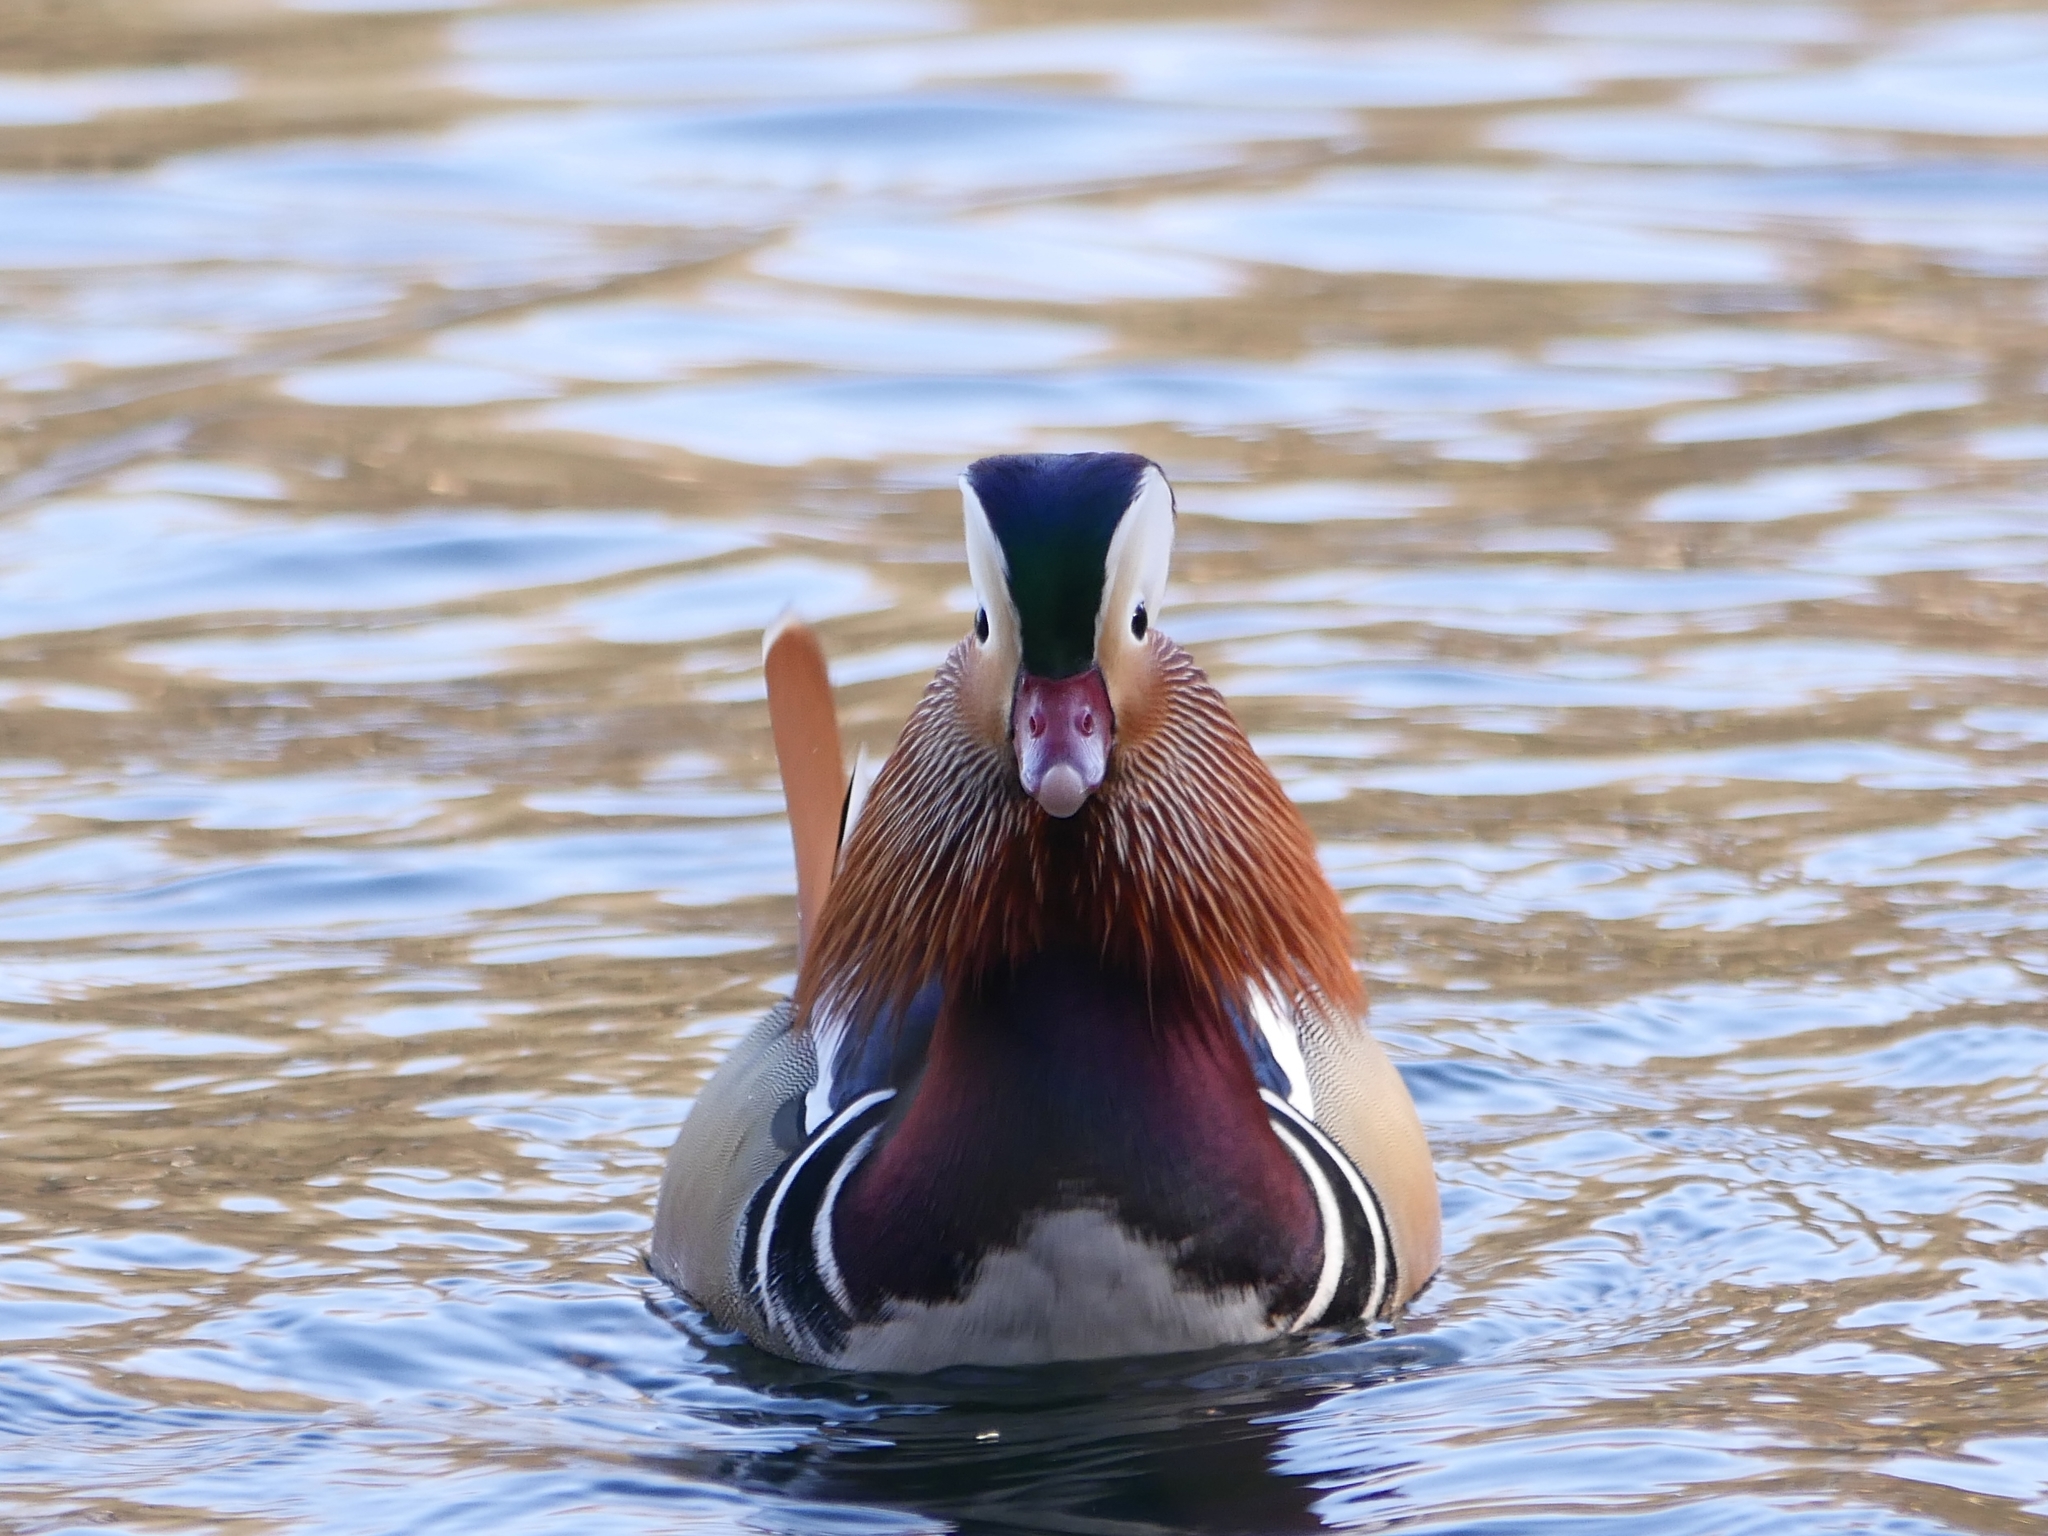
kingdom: Animalia
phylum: Chordata
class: Aves
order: Anseriformes
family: Anatidae
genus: Aix
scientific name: Aix galericulata
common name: Mandarin duck
